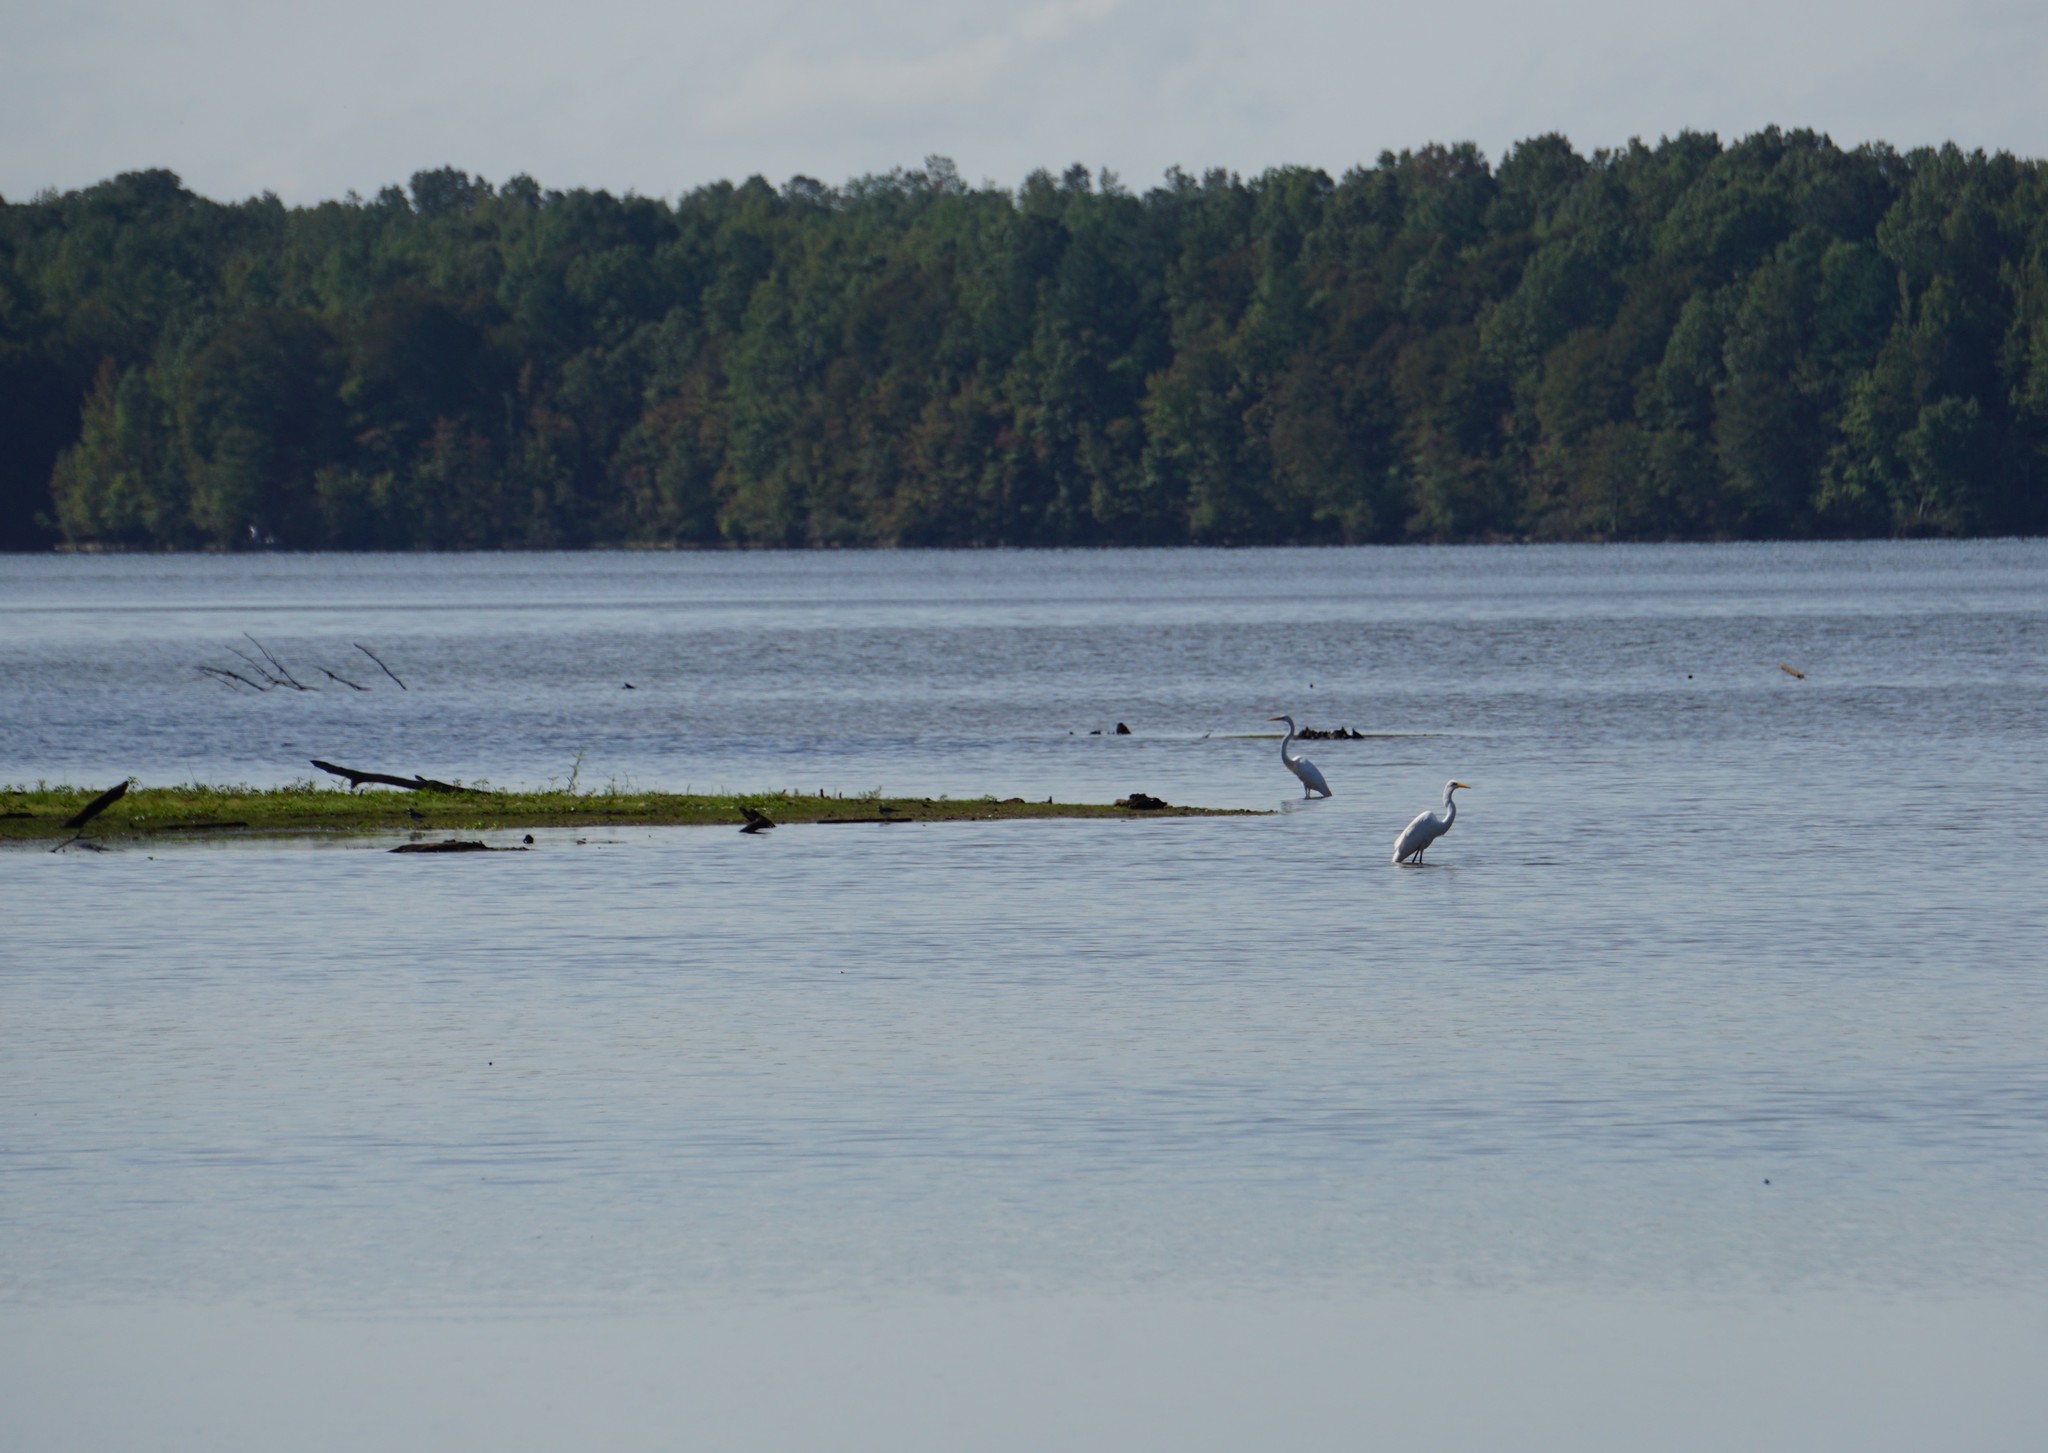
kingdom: Animalia
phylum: Chordata
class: Aves
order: Pelecaniformes
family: Ardeidae
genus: Ardea
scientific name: Ardea alba
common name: Great egret
